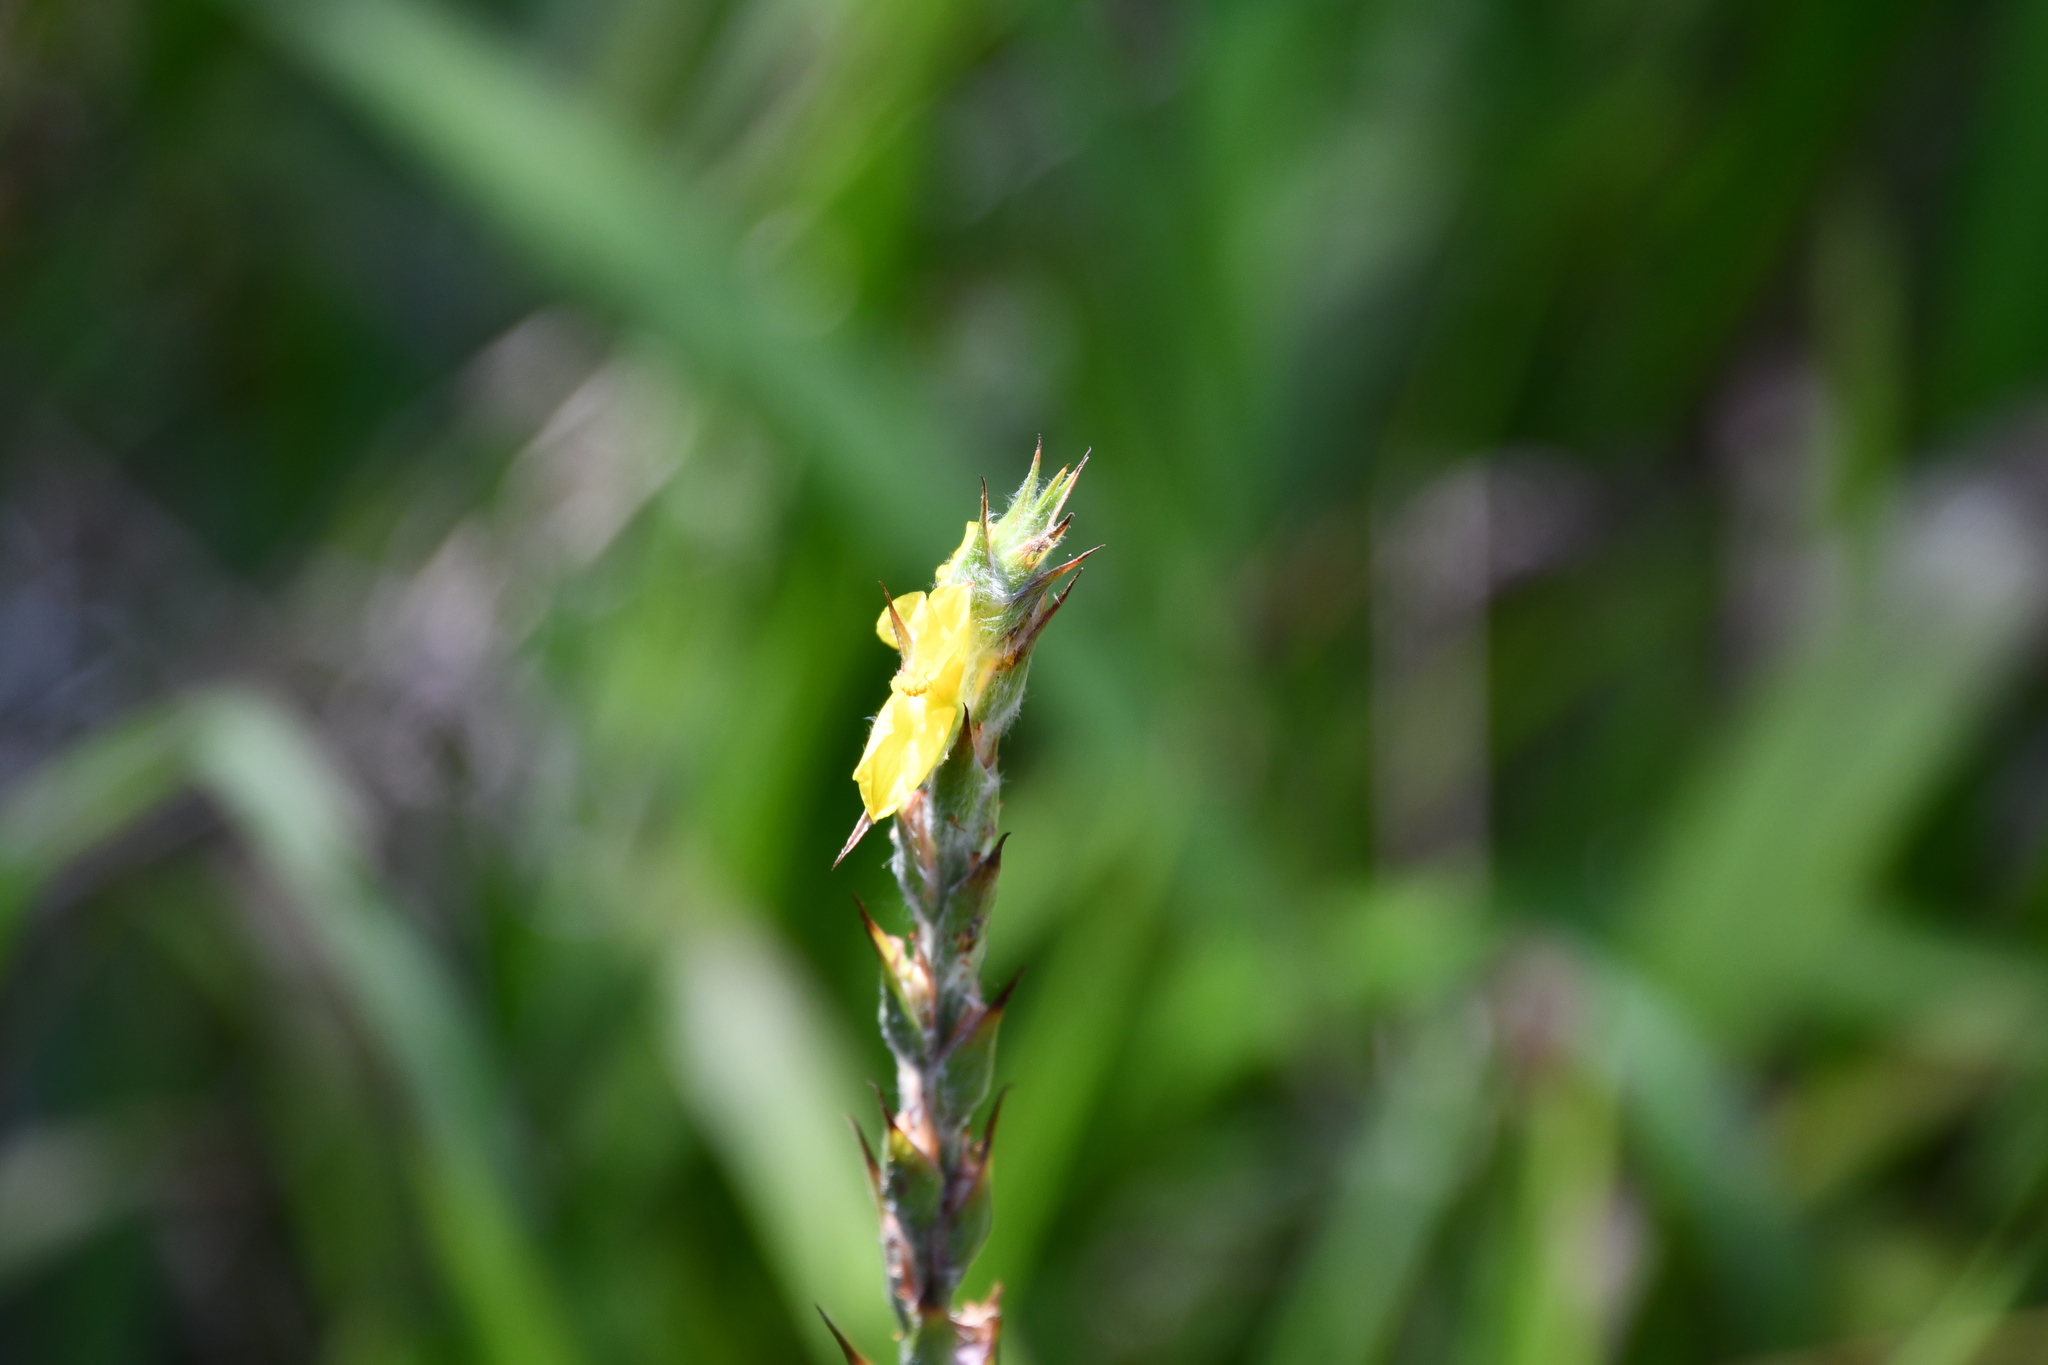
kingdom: Plantae
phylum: Tracheophyta
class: Liliopsida
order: Commelinales
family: Philydraceae
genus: Philydrum
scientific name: Philydrum lanuginosum
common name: Woolly frog's mouth
